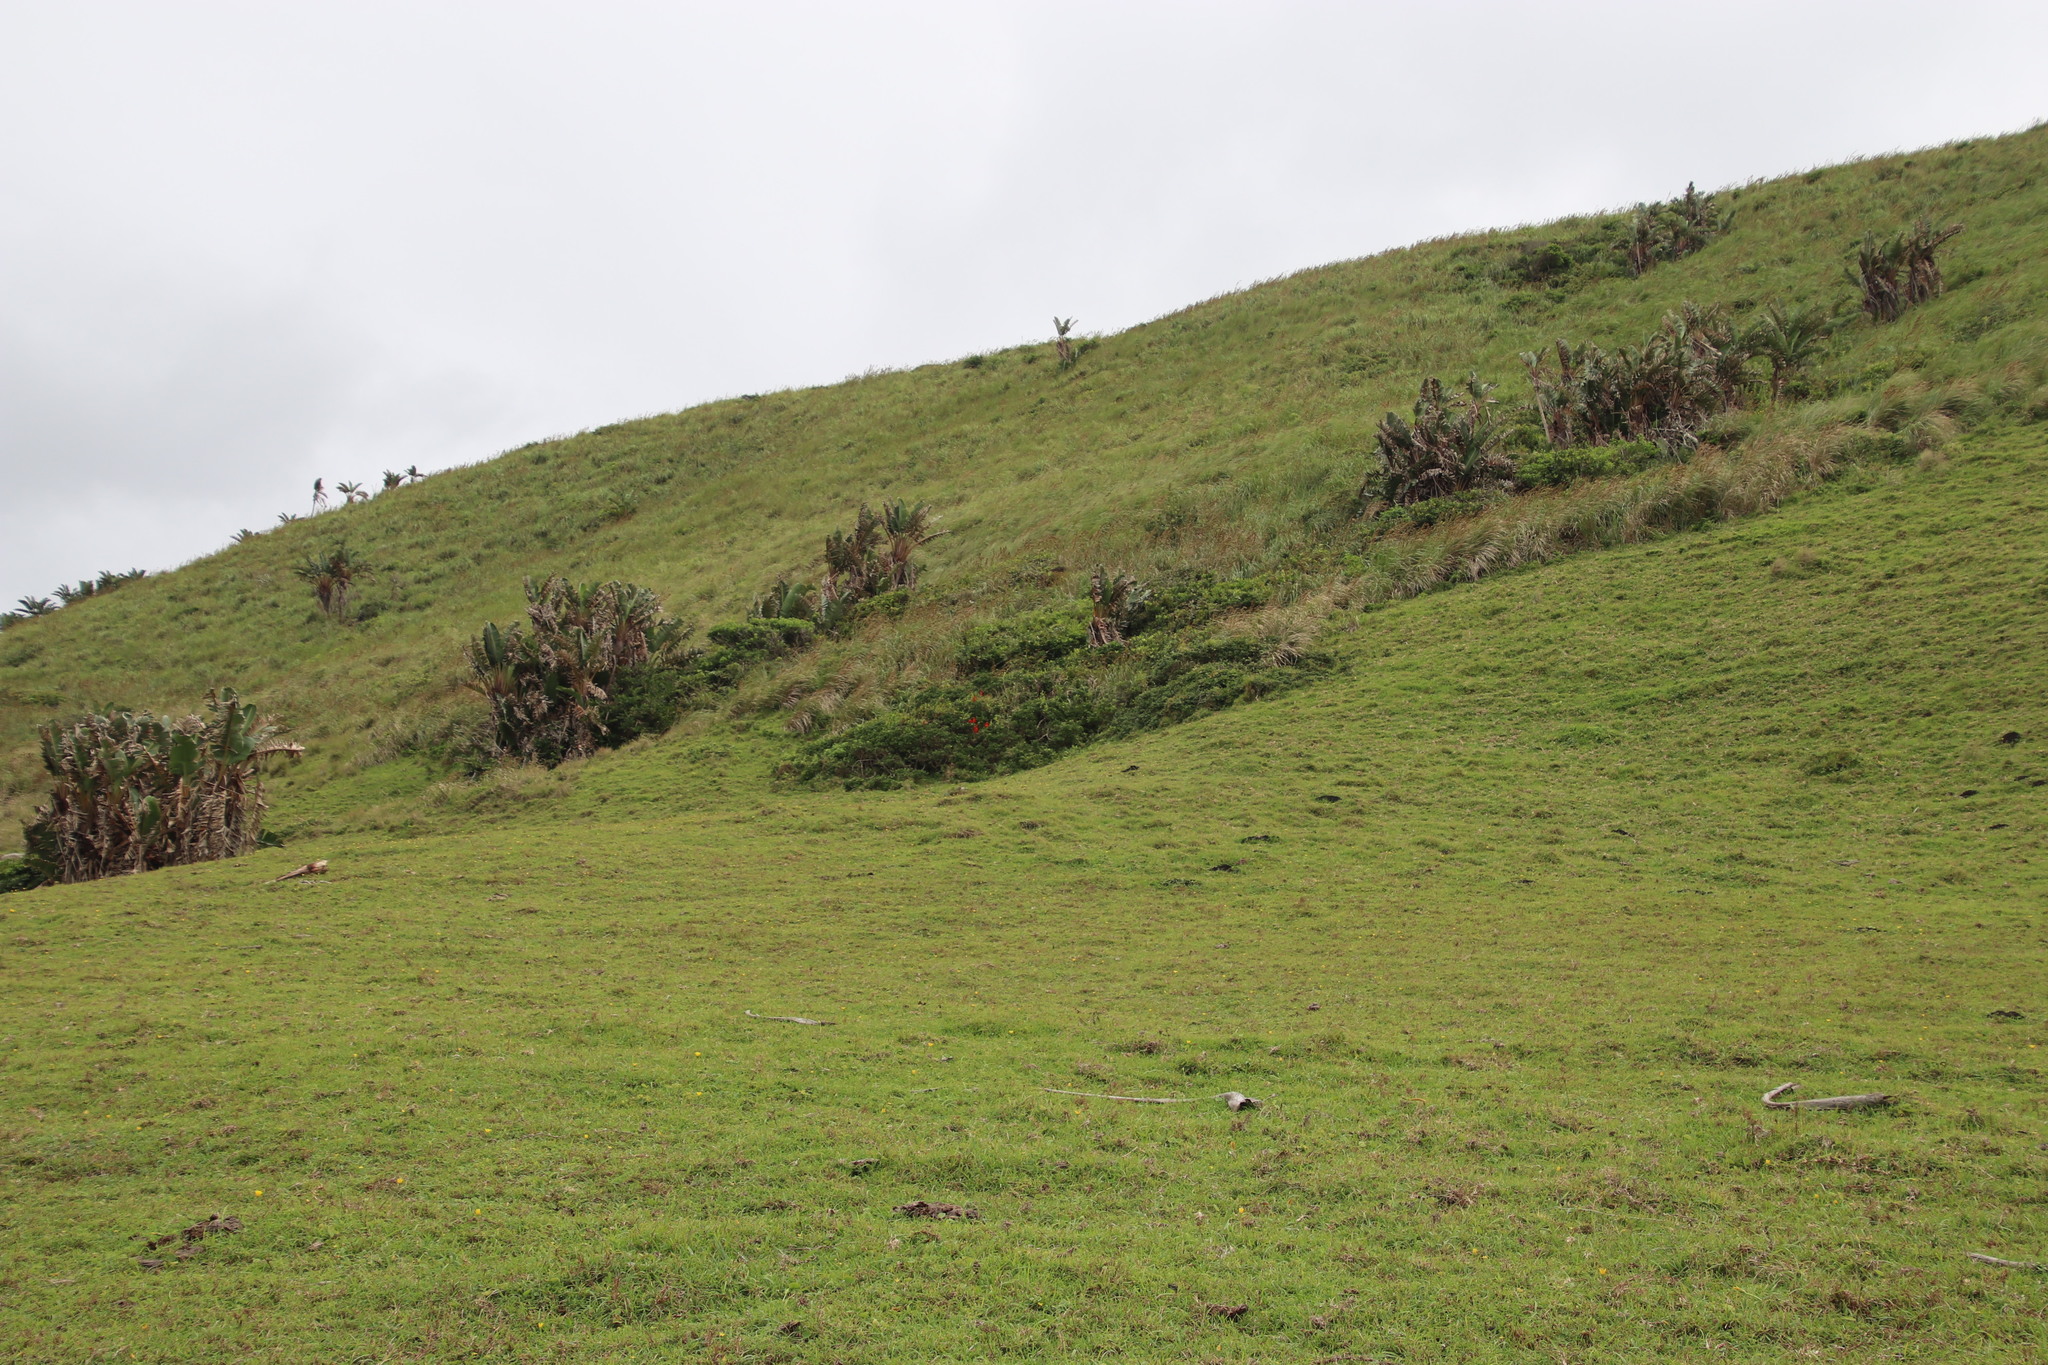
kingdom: Plantae
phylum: Tracheophyta
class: Magnoliopsida
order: Fabales
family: Fabaceae
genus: Erythrina
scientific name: Erythrina humeana
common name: Dwarf coral tree
